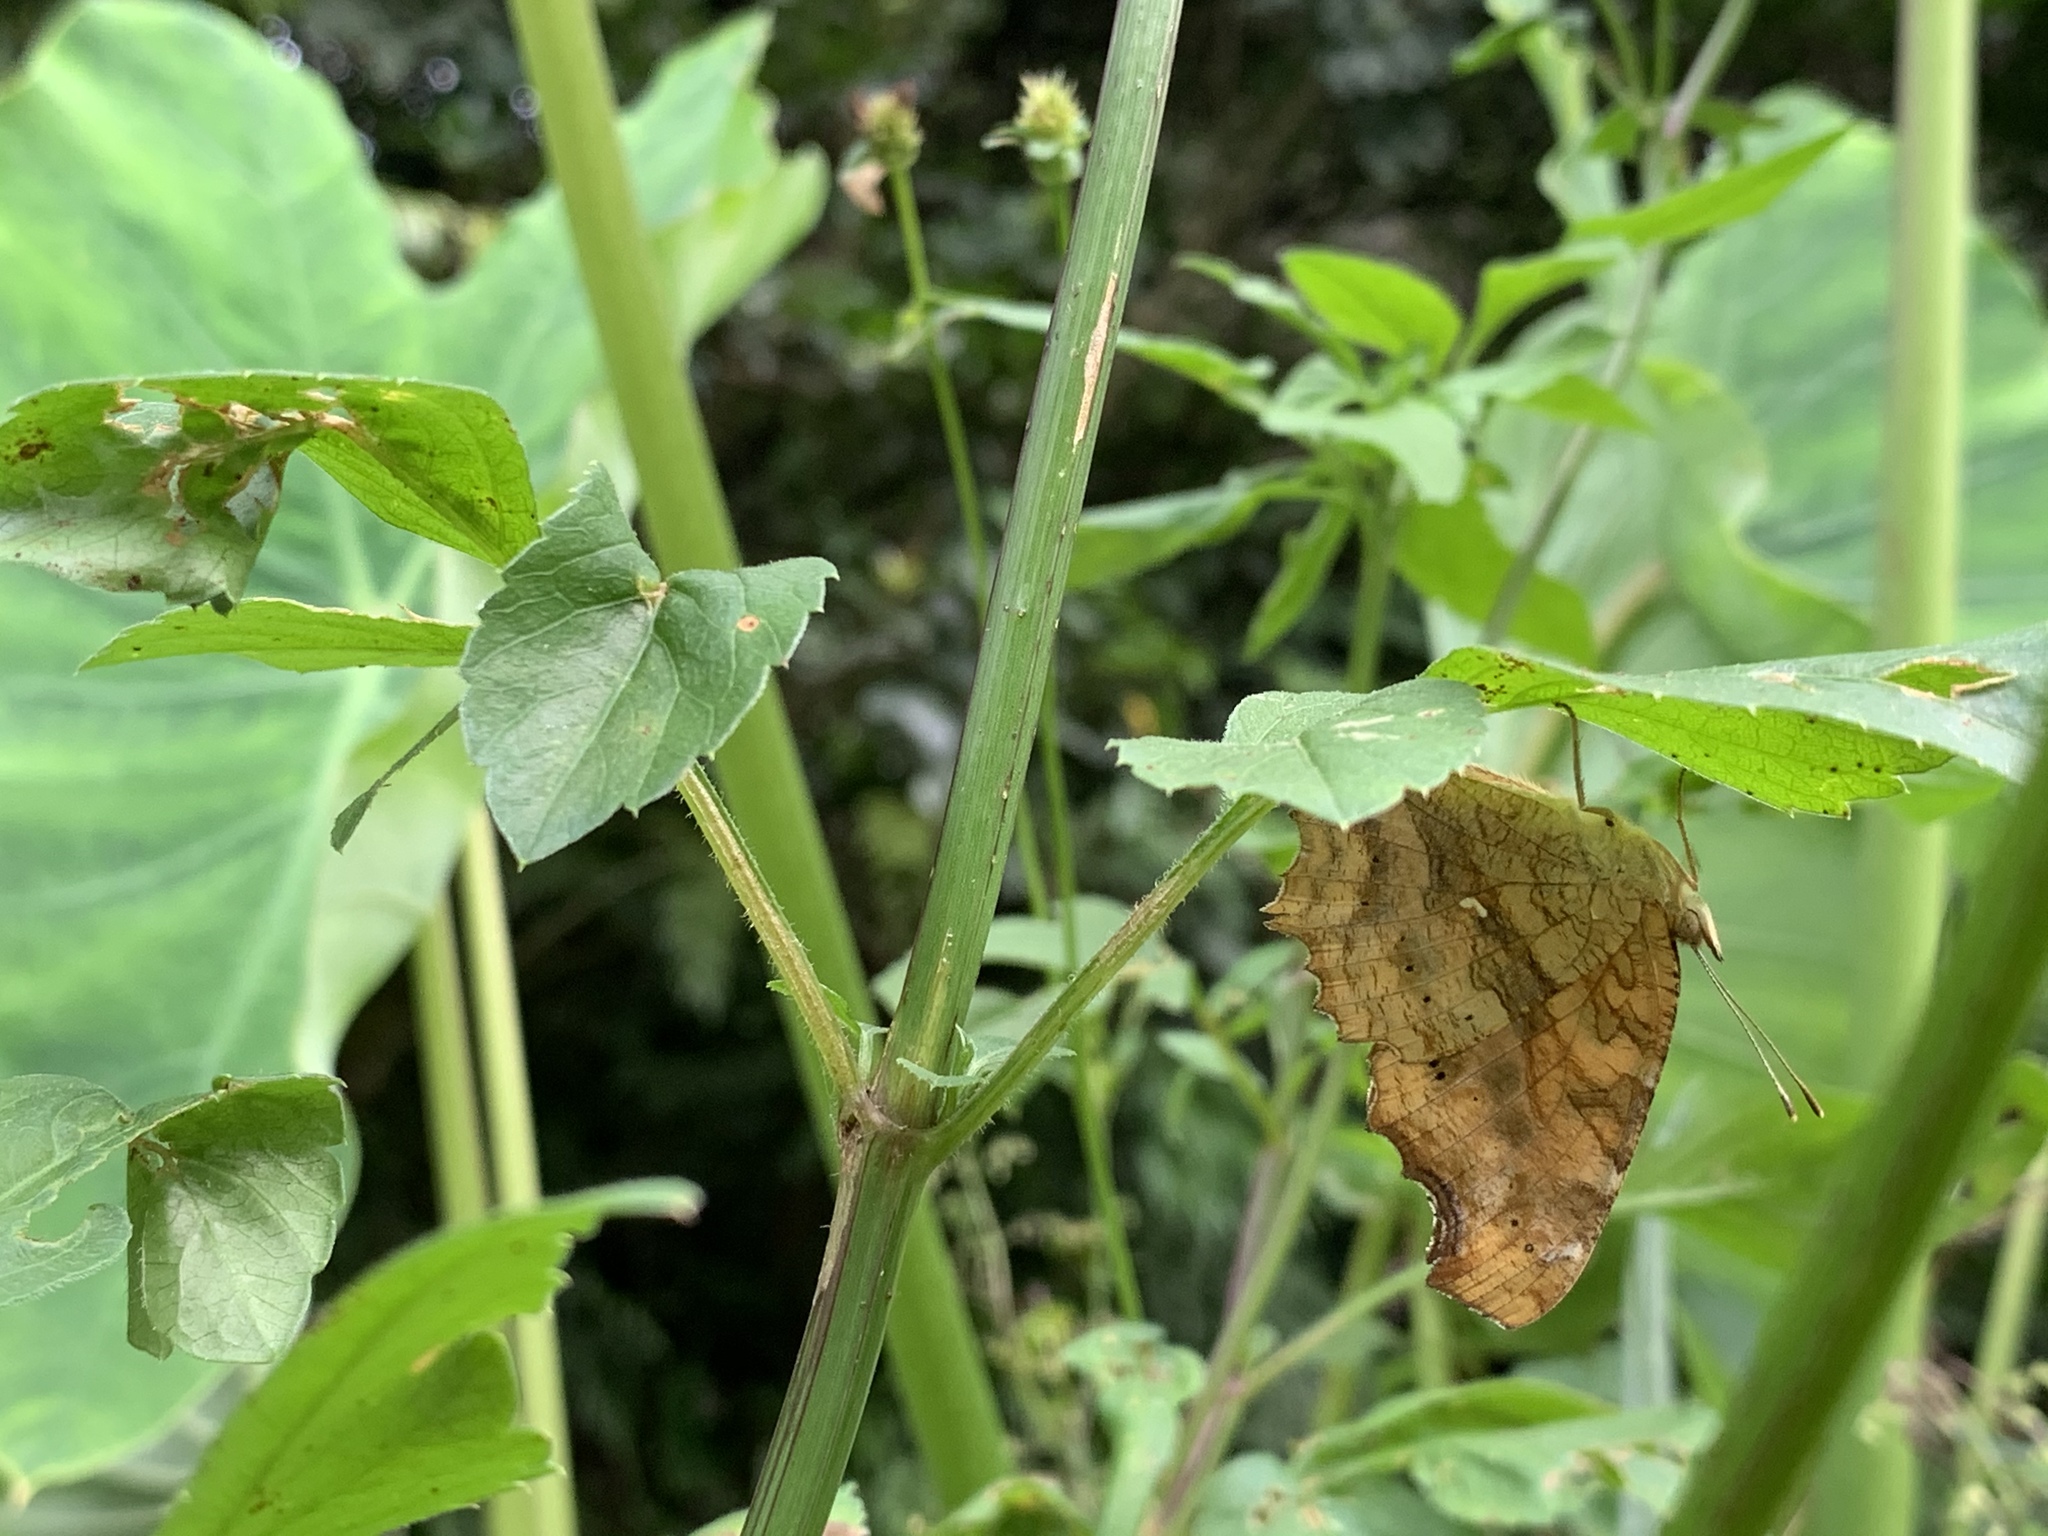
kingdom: Animalia
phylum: Arthropoda
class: Insecta
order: Lepidoptera
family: Nymphalidae
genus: Polygonia
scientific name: Polygonia c-aureum
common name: Asian comma
